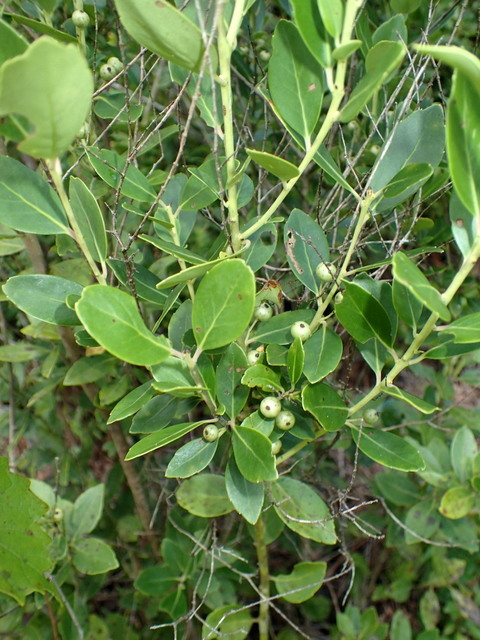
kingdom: Plantae
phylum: Tracheophyta
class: Magnoliopsida
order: Aquifoliales
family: Aquifoliaceae
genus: Ilex
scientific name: Ilex glabra
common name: Bitter gallberry
